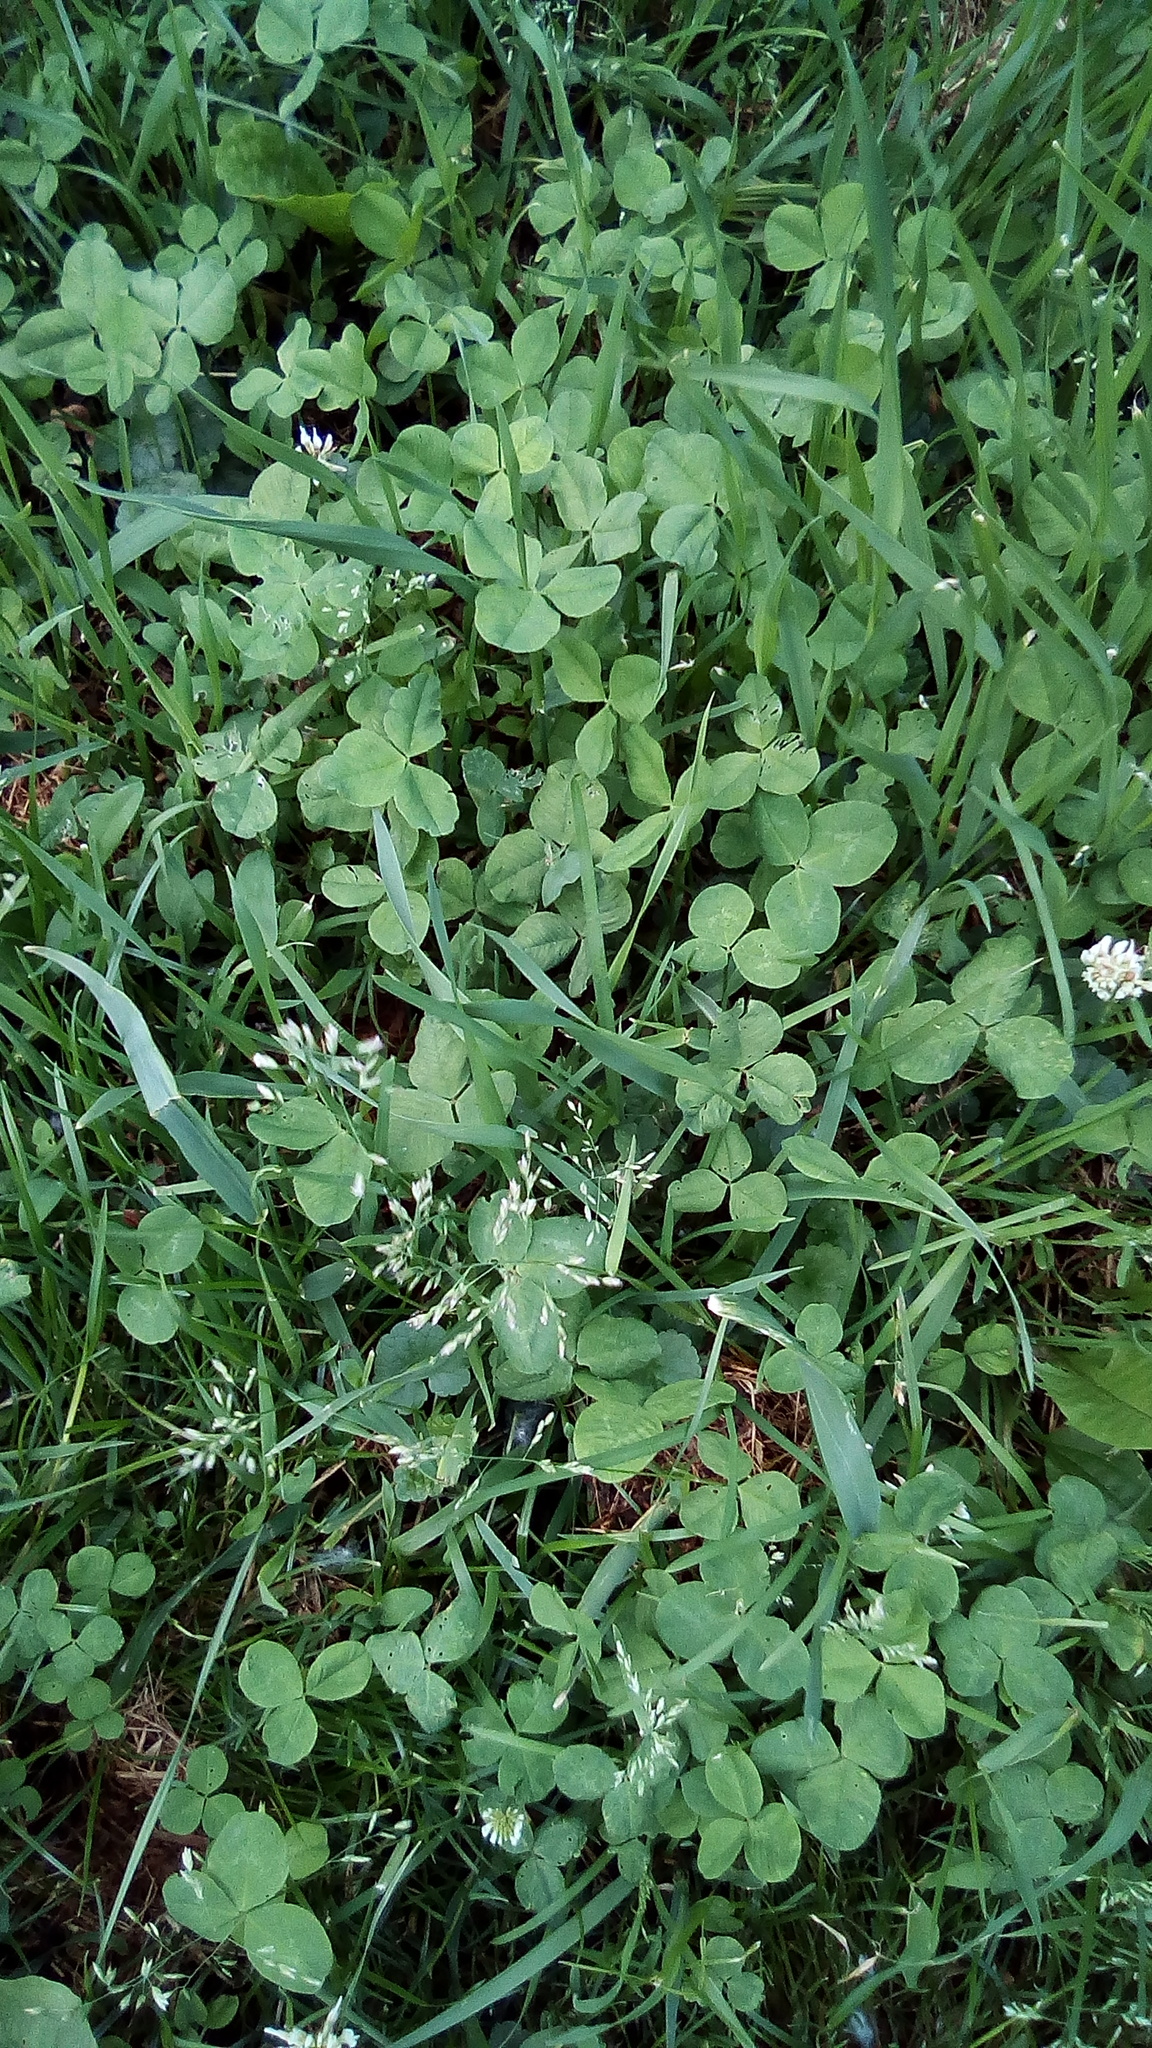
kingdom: Plantae
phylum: Tracheophyta
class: Magnoliopsida
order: Fabales
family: Fabaceae
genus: Trifolium
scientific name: Trifolium repens
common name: White clover
